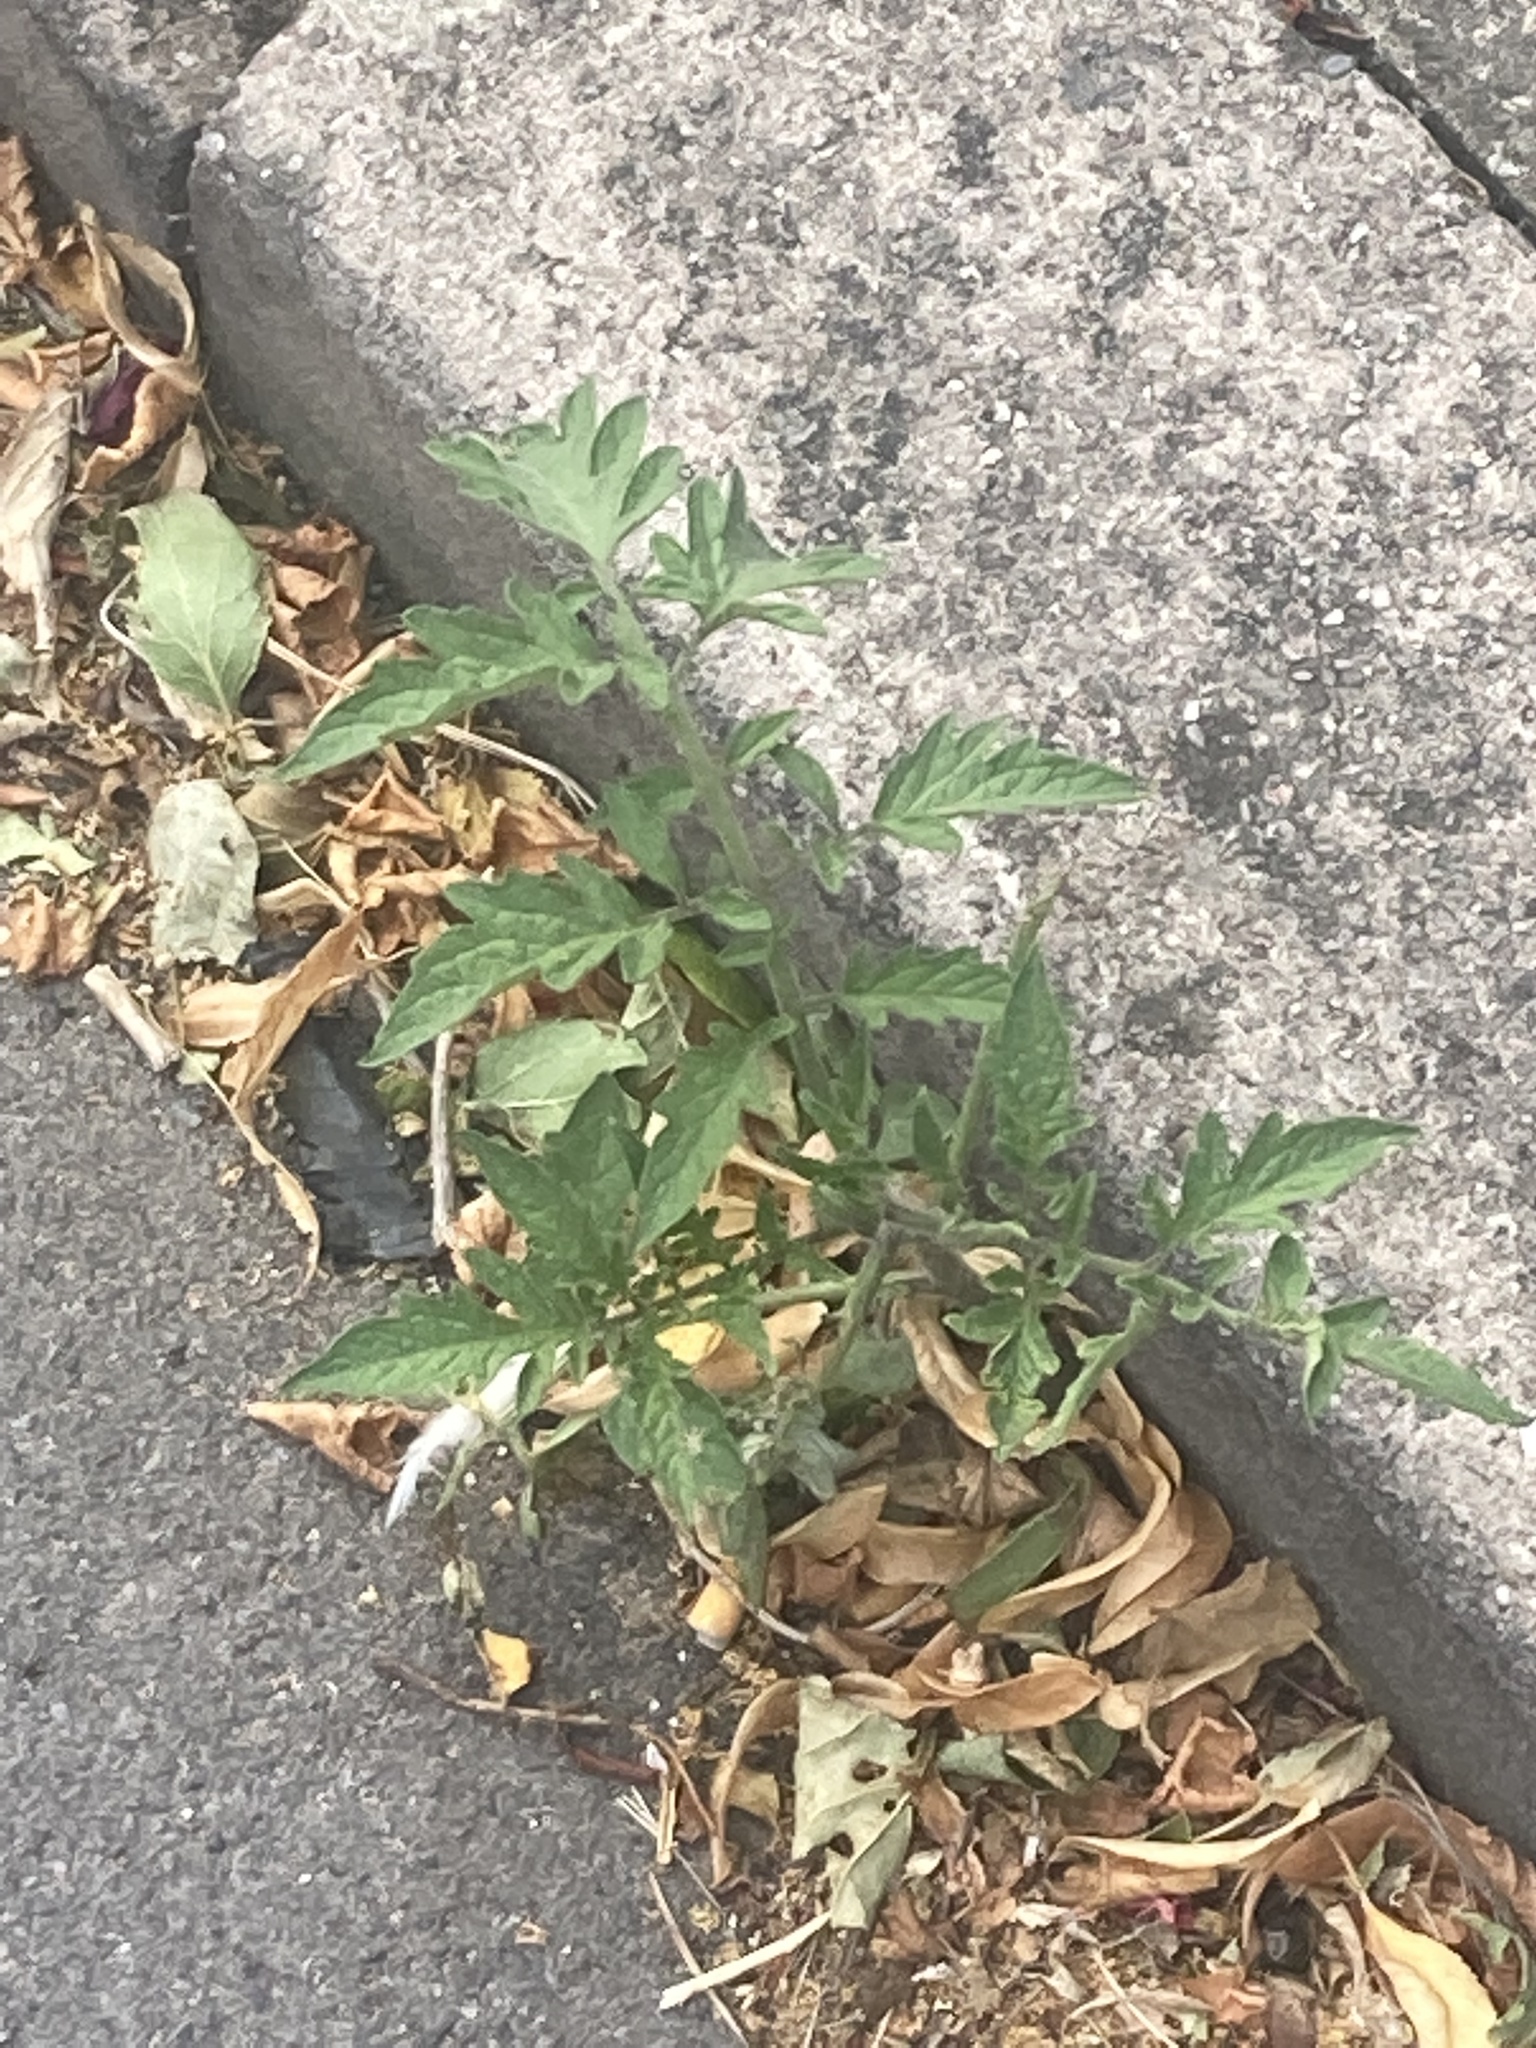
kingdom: Plantae
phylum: Tracheophyta
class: Magnoliopsida
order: Solanales
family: Solanaceae
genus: Solanum
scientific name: Solanum lycopersicum
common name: Garden tomato
